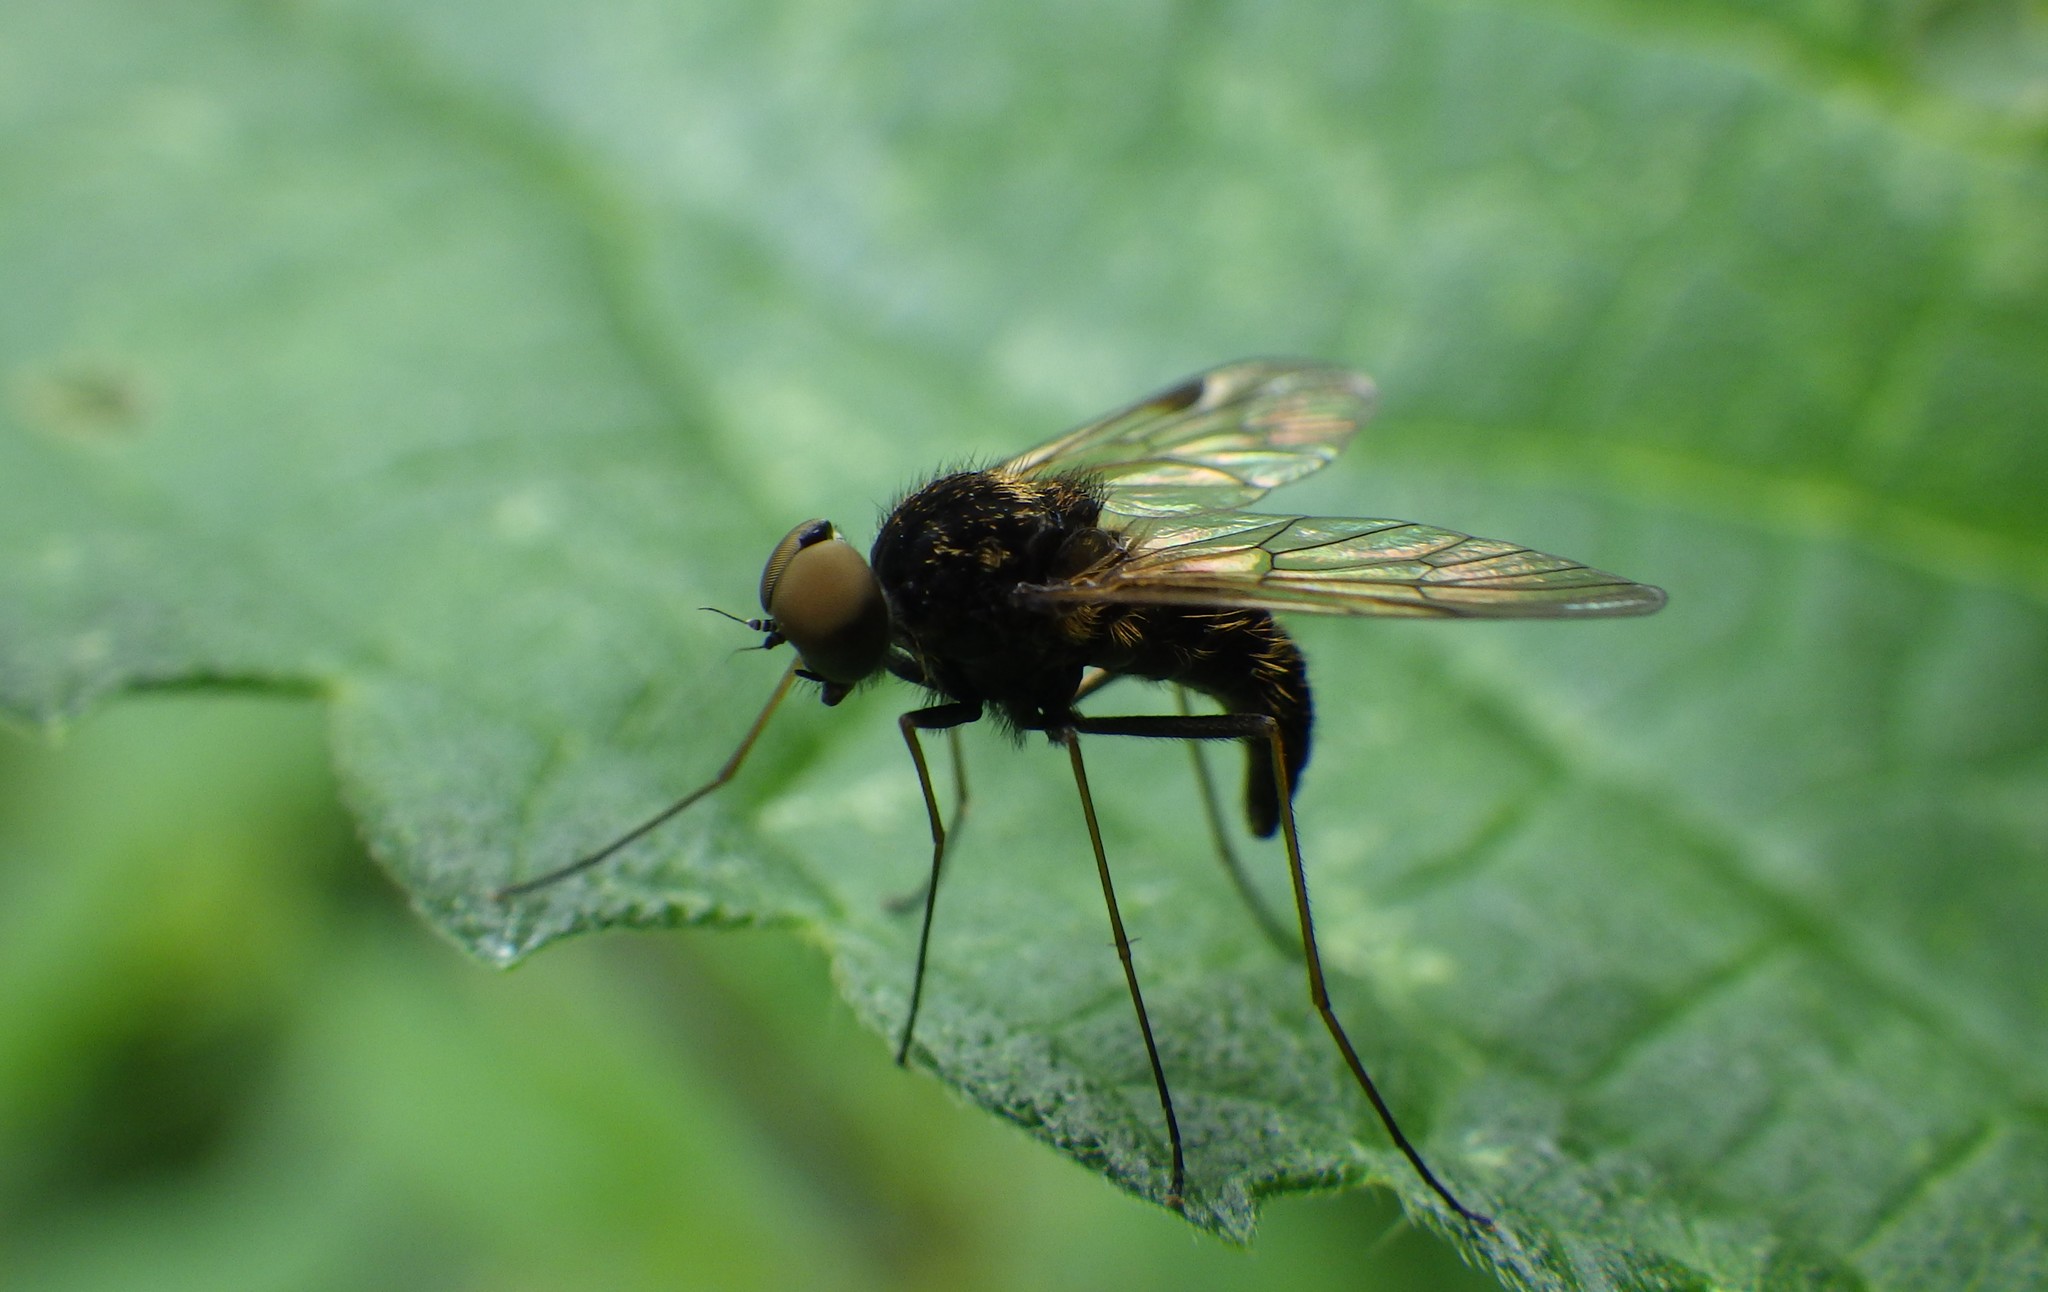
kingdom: Animalia
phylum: Arthropoda
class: Insecta
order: Diptera
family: Rhagionidae
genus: Chrysopilus
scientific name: Chrysopilus cristatus
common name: Black snipefly
